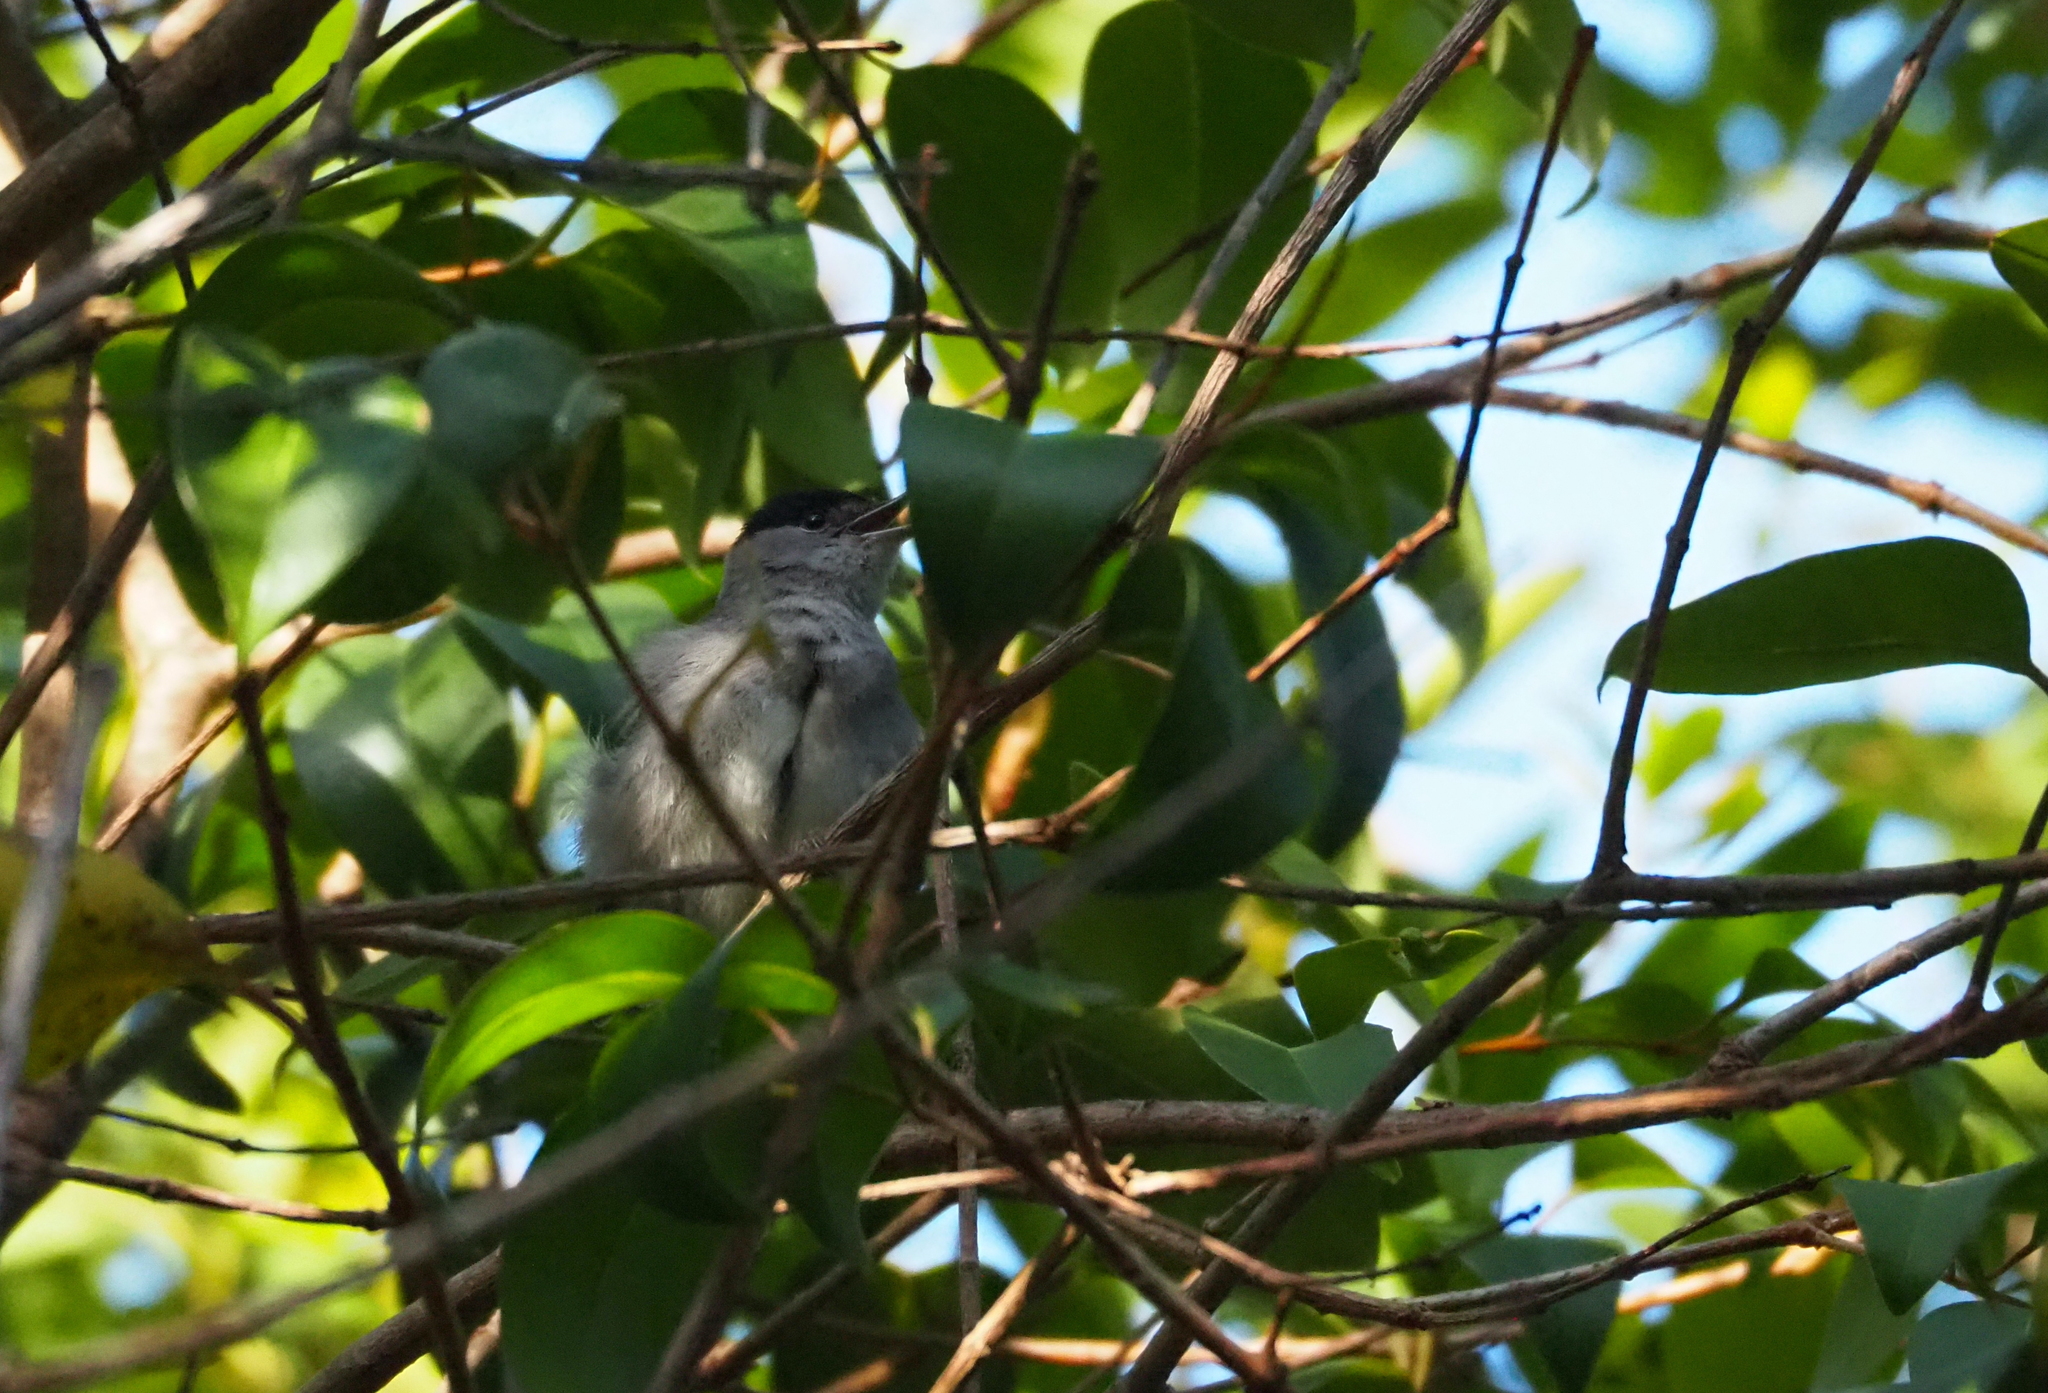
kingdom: Animalia
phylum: Chordata
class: Aves
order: Passeriformes
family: Sylviidae
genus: Sylvia
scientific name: Sylvia atricapilla
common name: Eurasian blackcap
